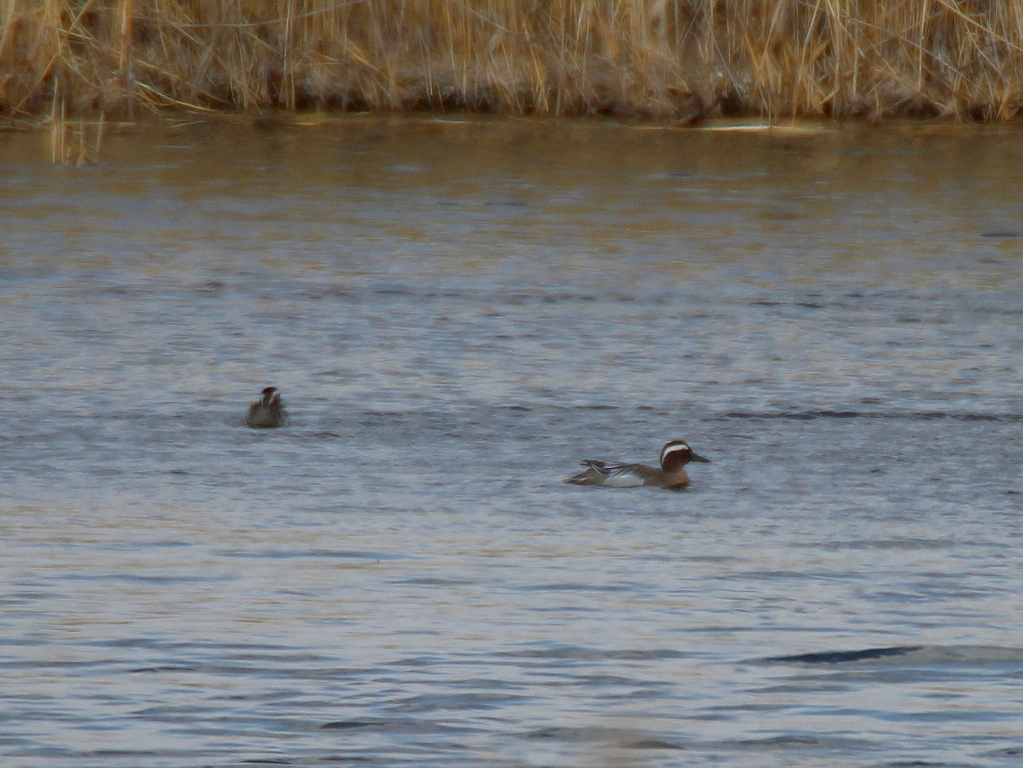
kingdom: Animalia
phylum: Chordata
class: Aves
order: Anseriformes
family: Anatidae
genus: Spatula
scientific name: Spatula querquedula
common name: Garganey
